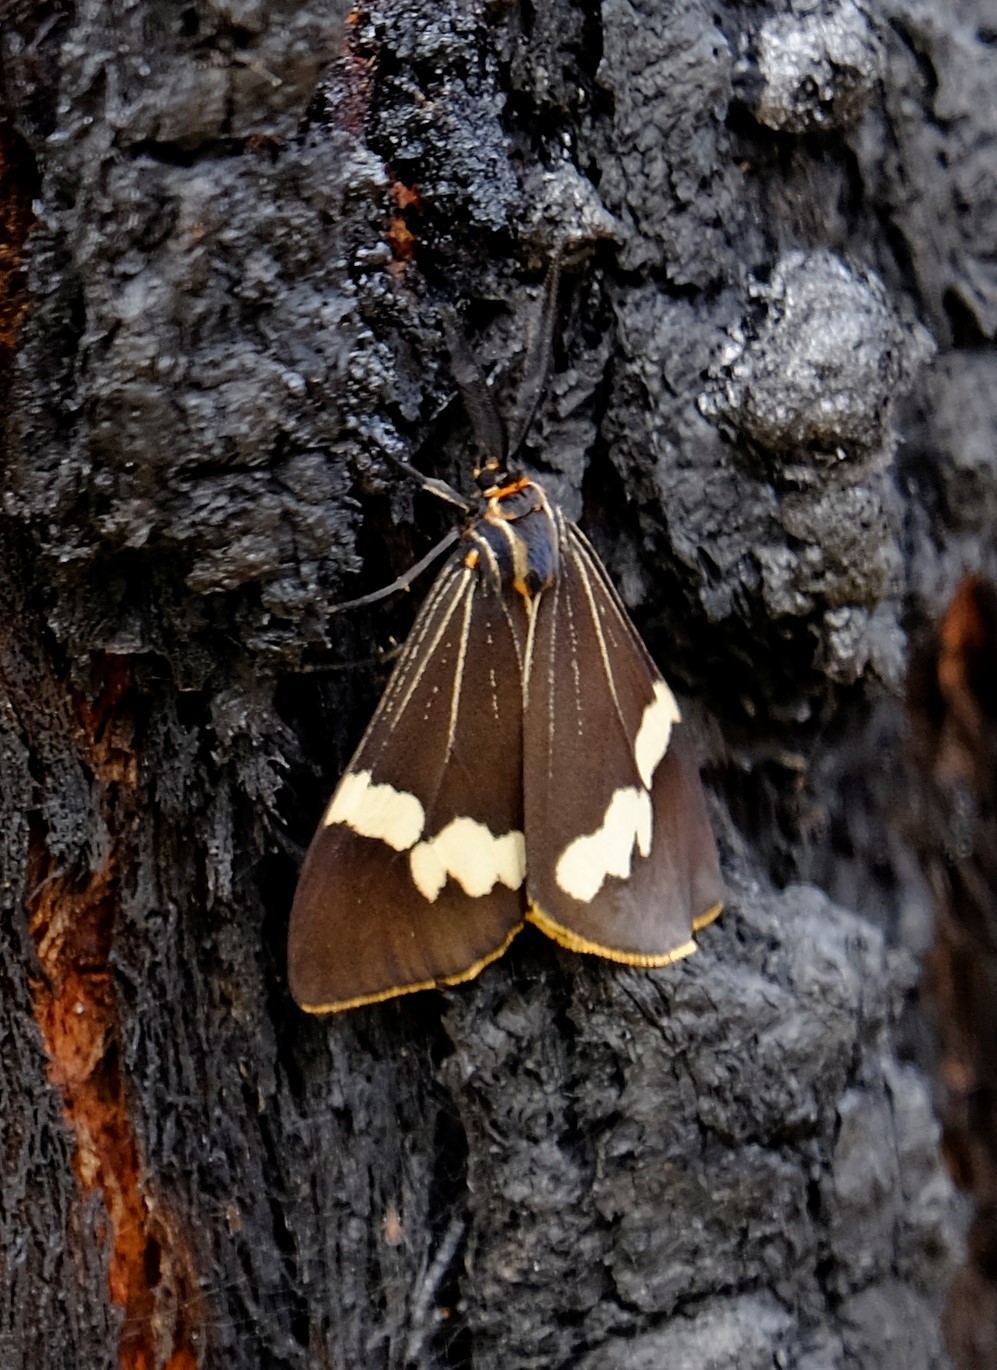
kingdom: Animalia
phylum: Arthropoda
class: Insecta
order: Lepidoptera
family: Erebidae
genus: Nyctemera
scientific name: Nyctemera amicus
